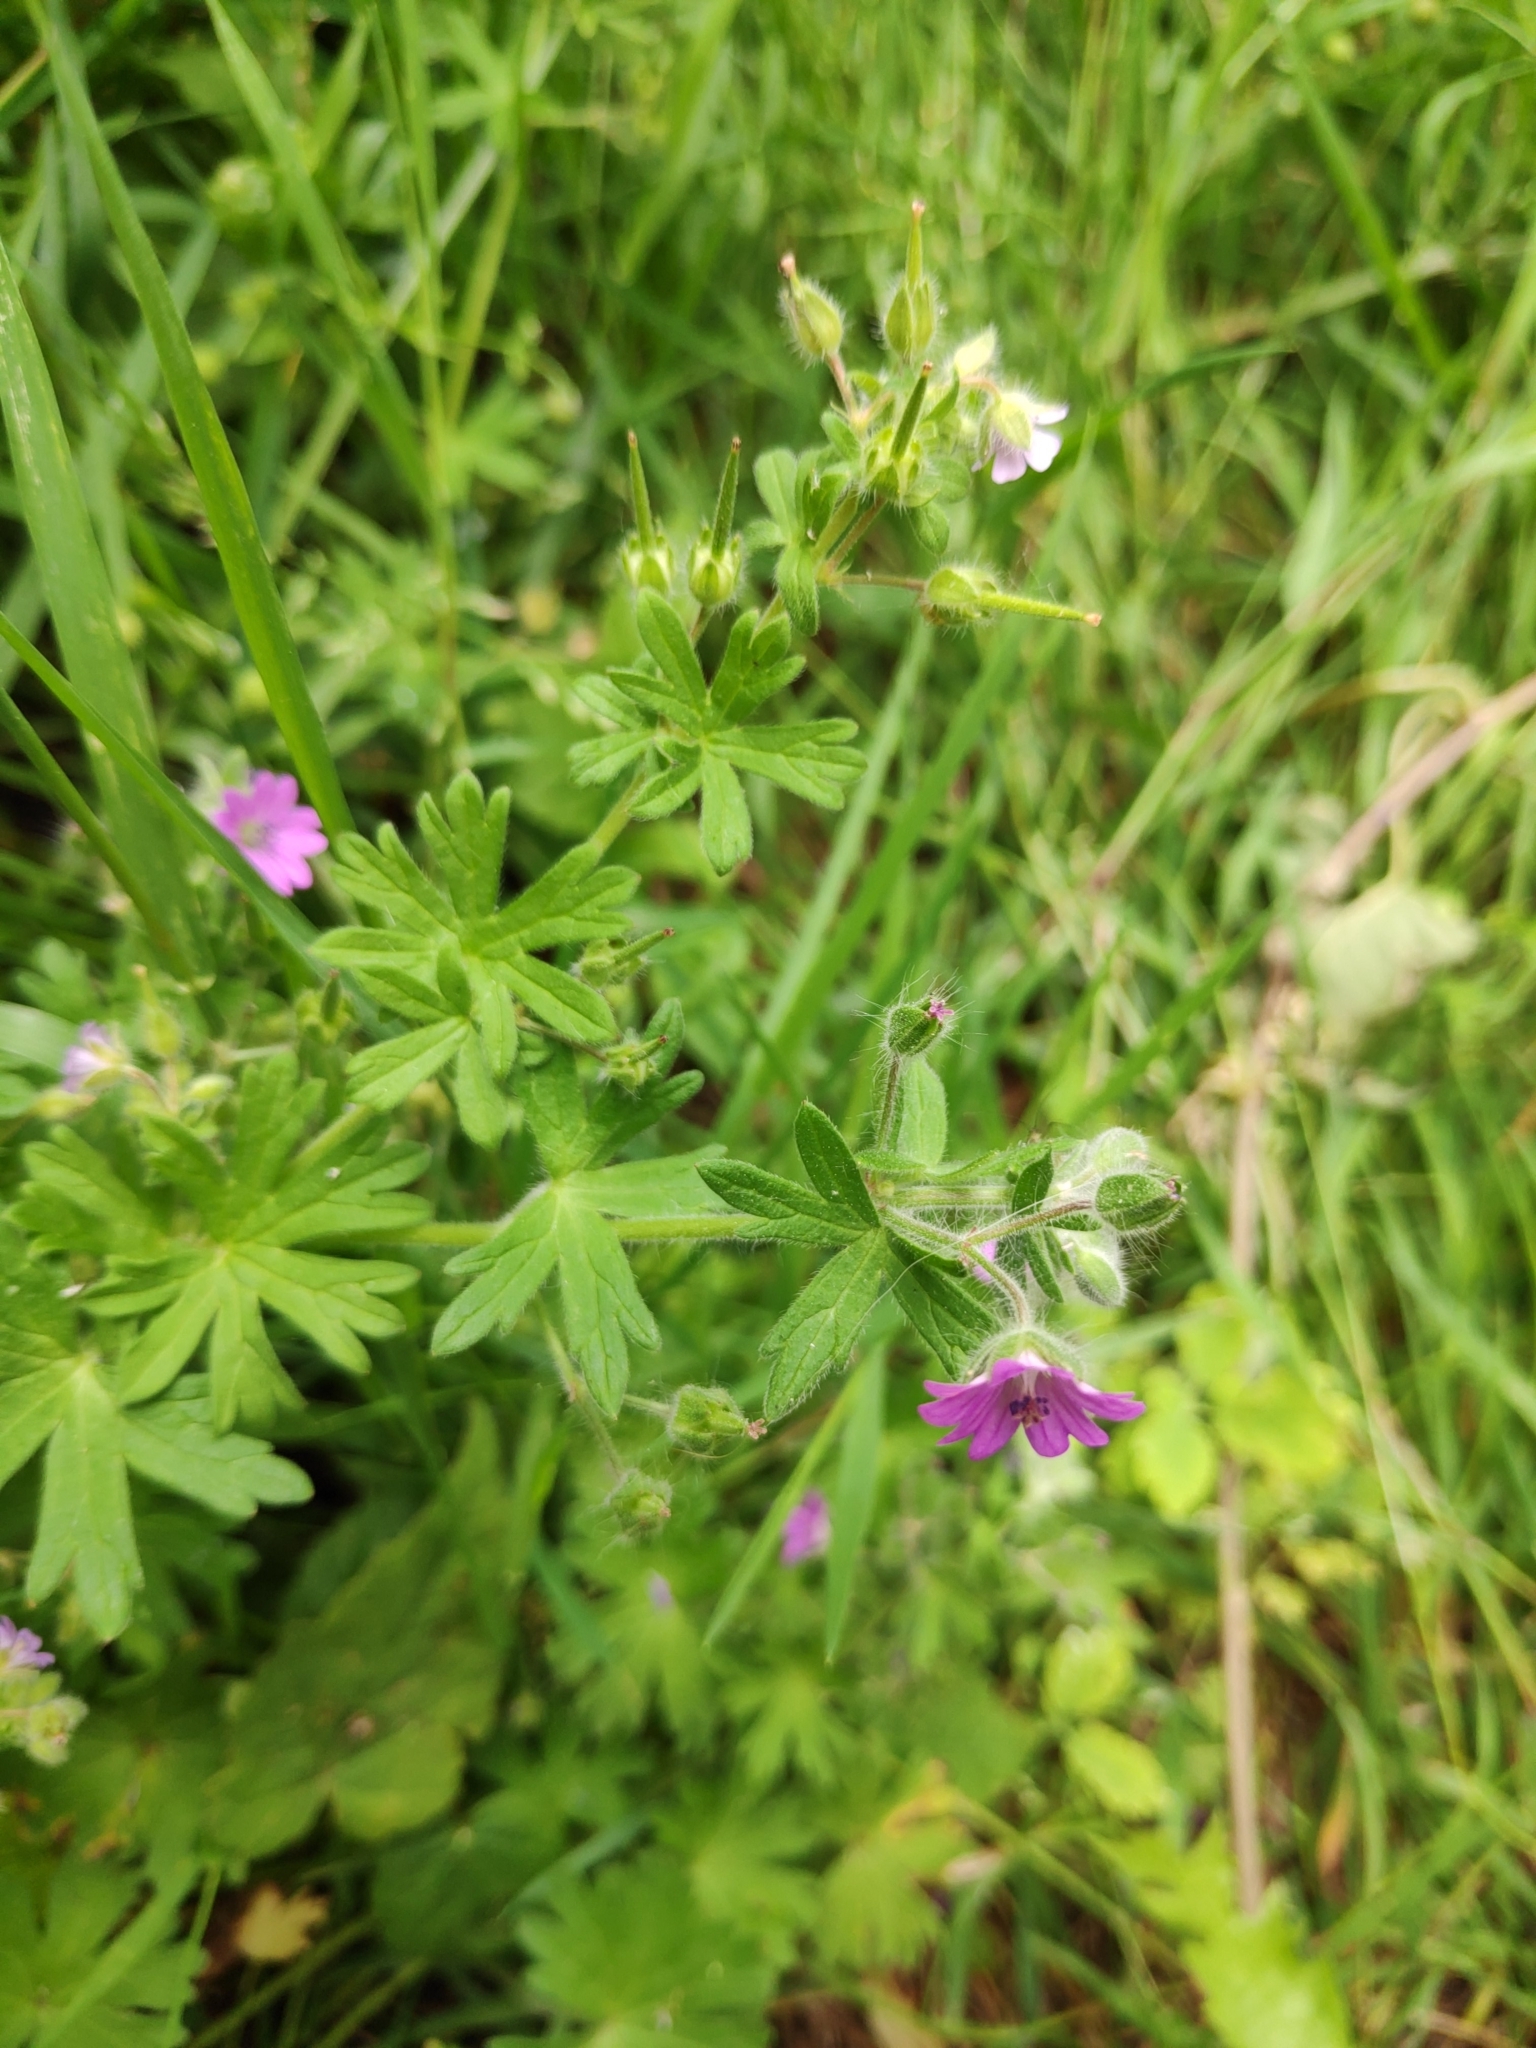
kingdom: Plantae
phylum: Tracheophyta
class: Magnoliopsida
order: Geraniales
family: Geraniaceae
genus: Geranium
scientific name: Geranium molle
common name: Dove's-foot crane's-bill
